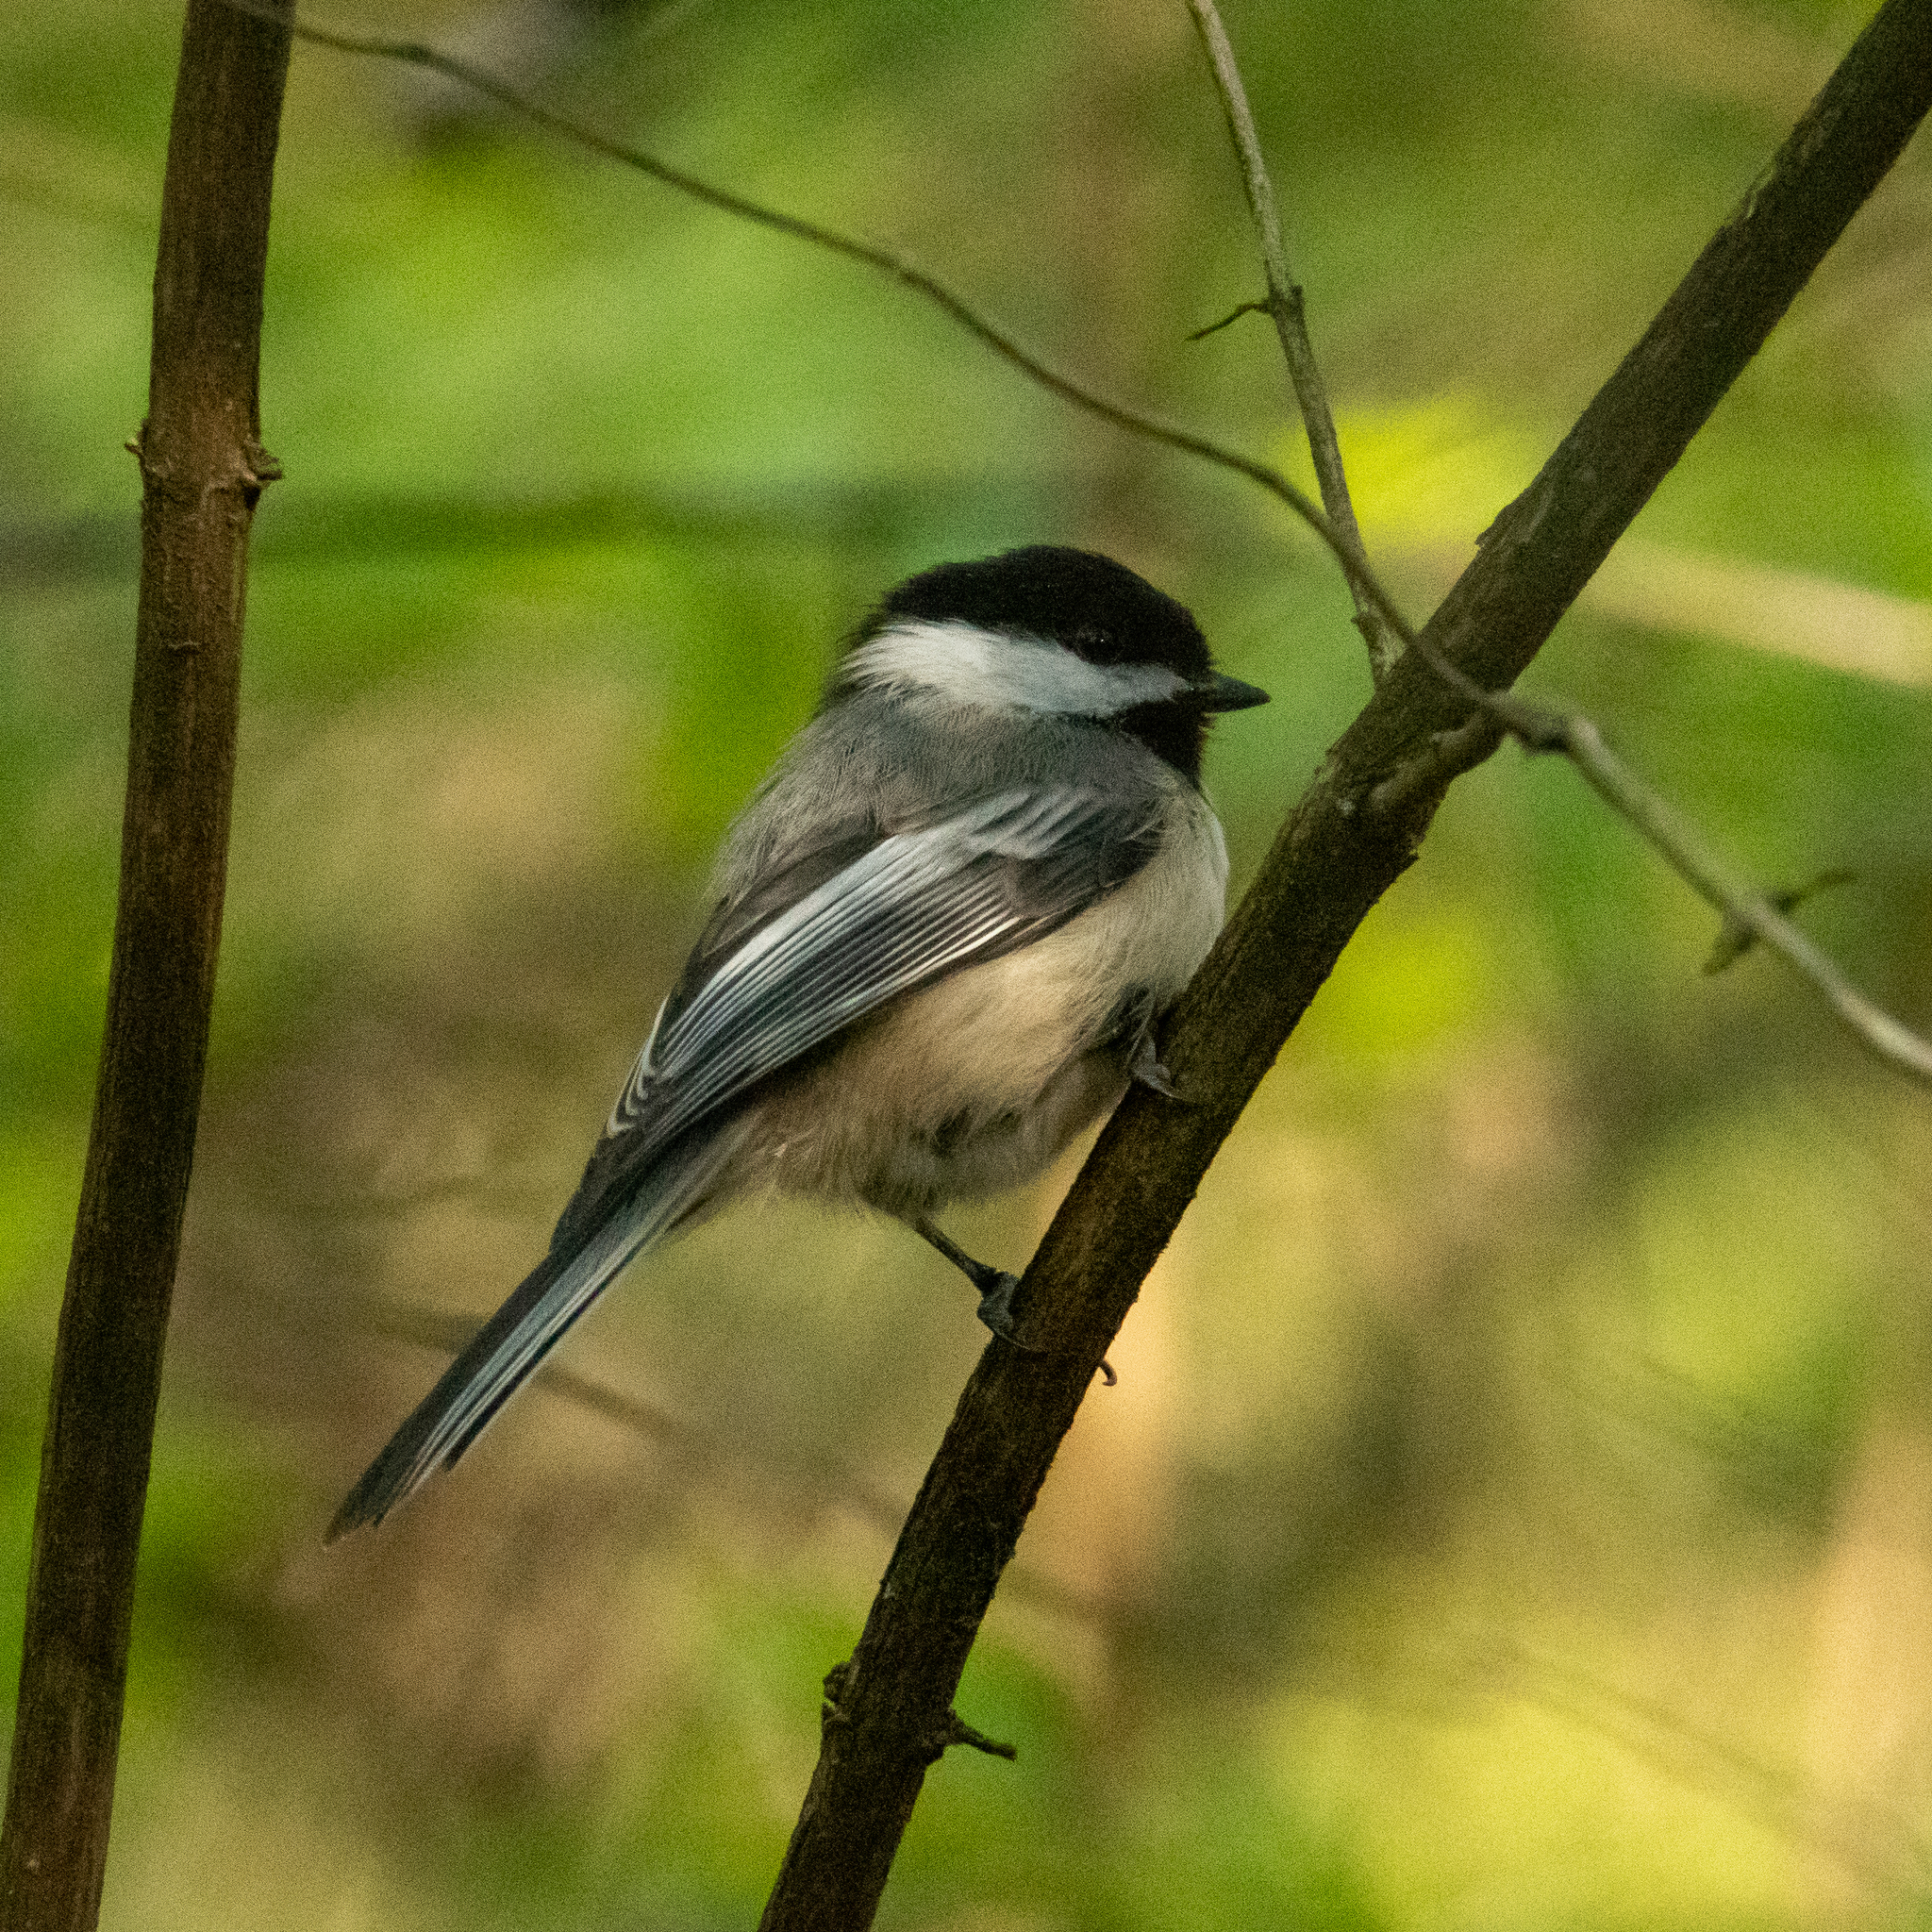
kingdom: Animalia
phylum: Chordata
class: Aves
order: Passeriformes
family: Paridae
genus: Poecile
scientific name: Poecile atricapillus
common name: Black-capped chickadee
